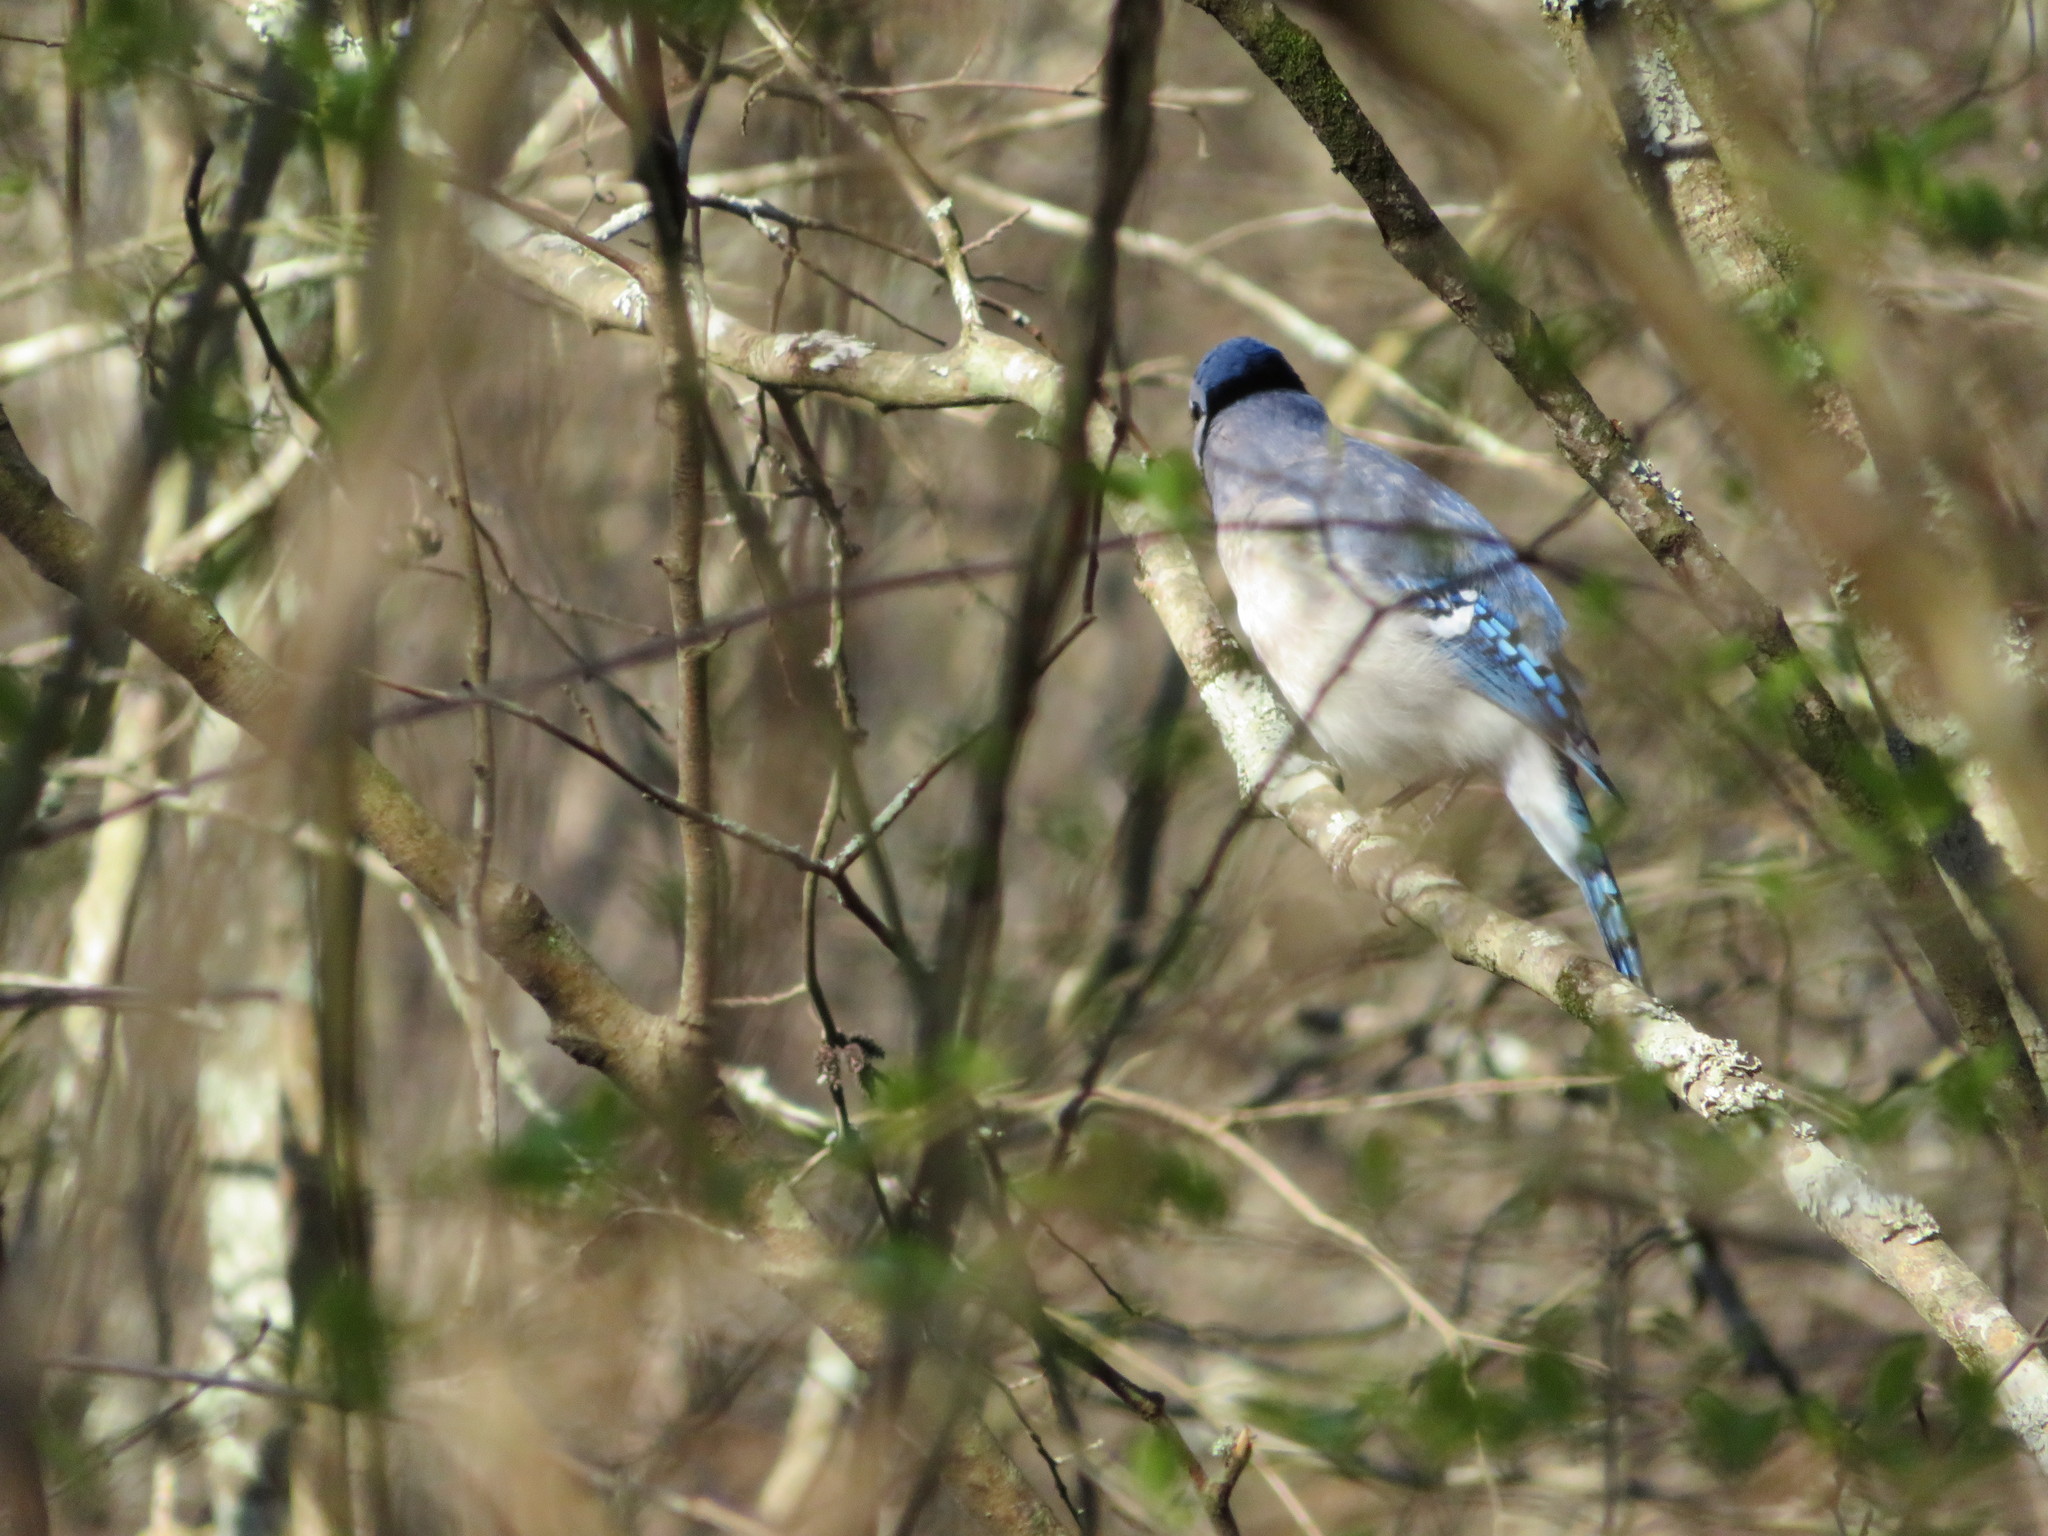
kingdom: Animalia
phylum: Chordata
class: Aves
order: Passeriformes
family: Corvidae
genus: Cyanocitta
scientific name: Cyanocitta cristata
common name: Blue jay
